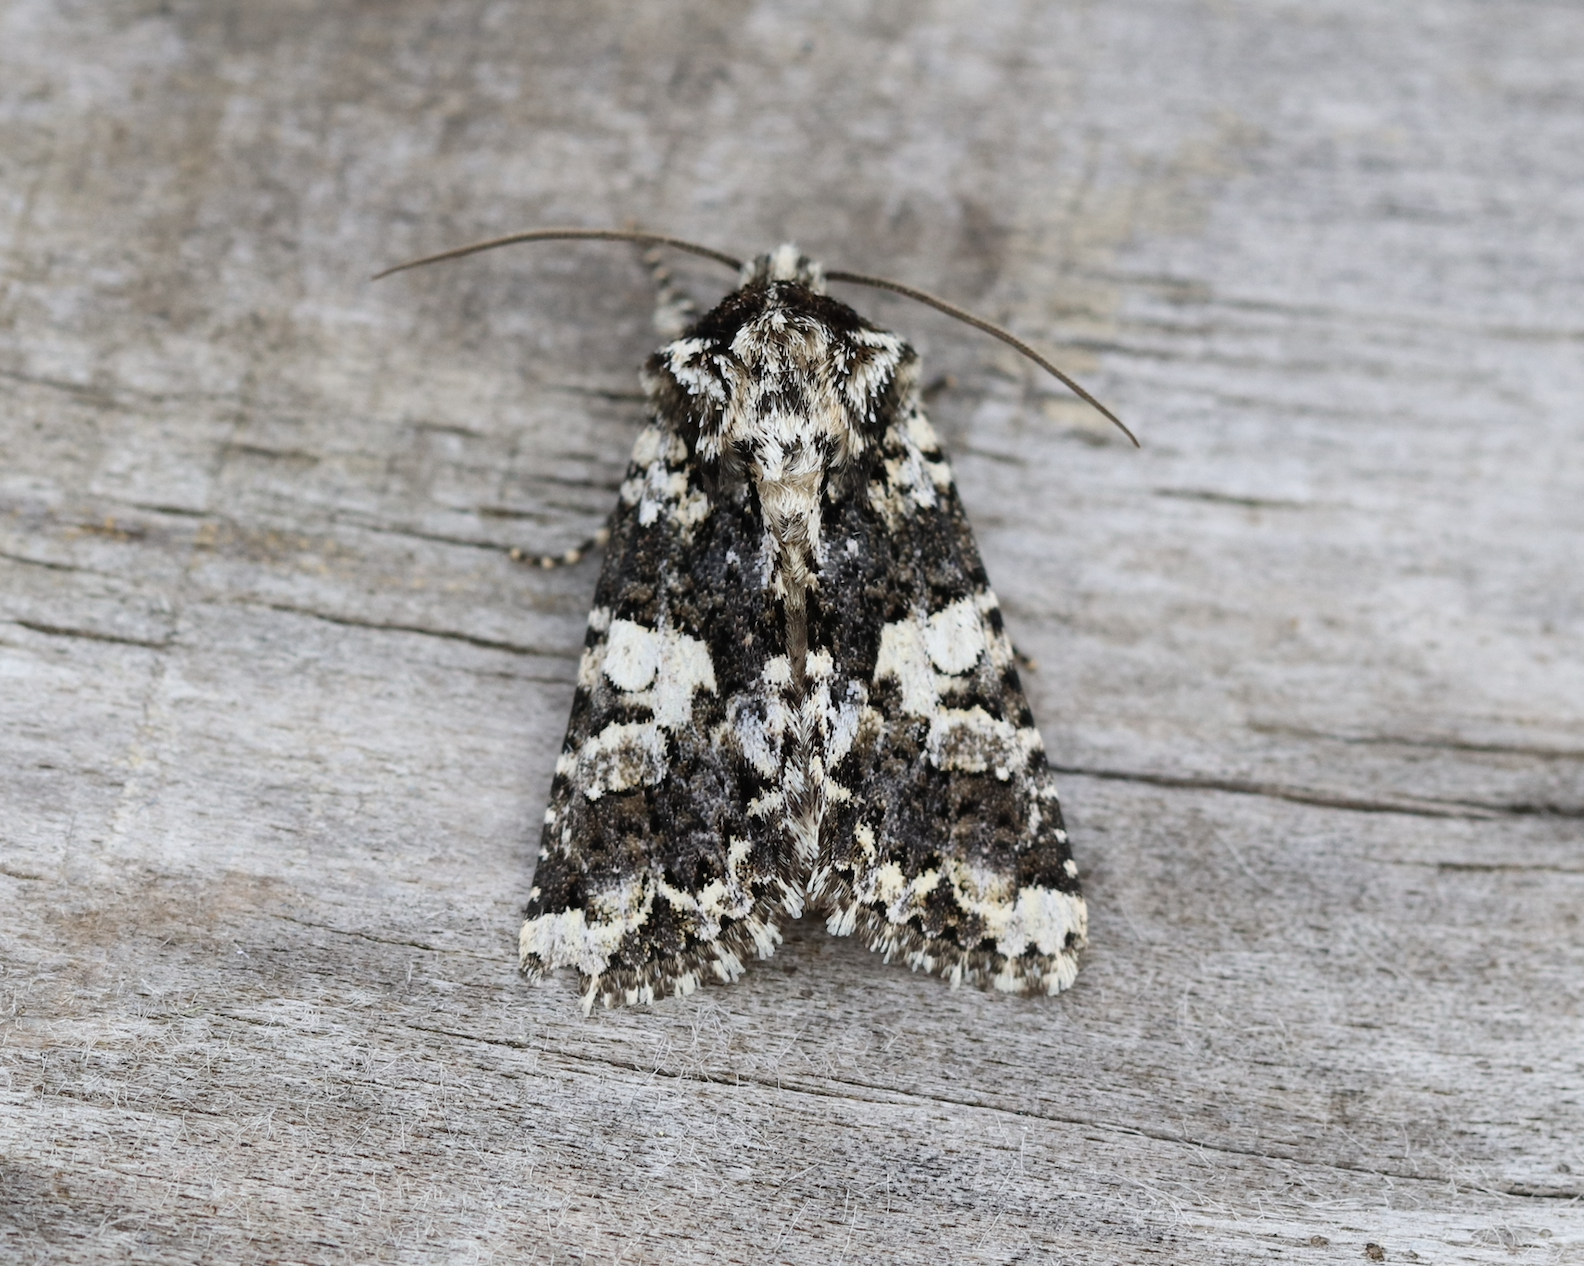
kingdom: Animalia
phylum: Arthropoda
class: Insecta
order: Lepidoptera
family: Noctuidae
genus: Hadena
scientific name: Hadena confusa
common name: Marbled coronet
